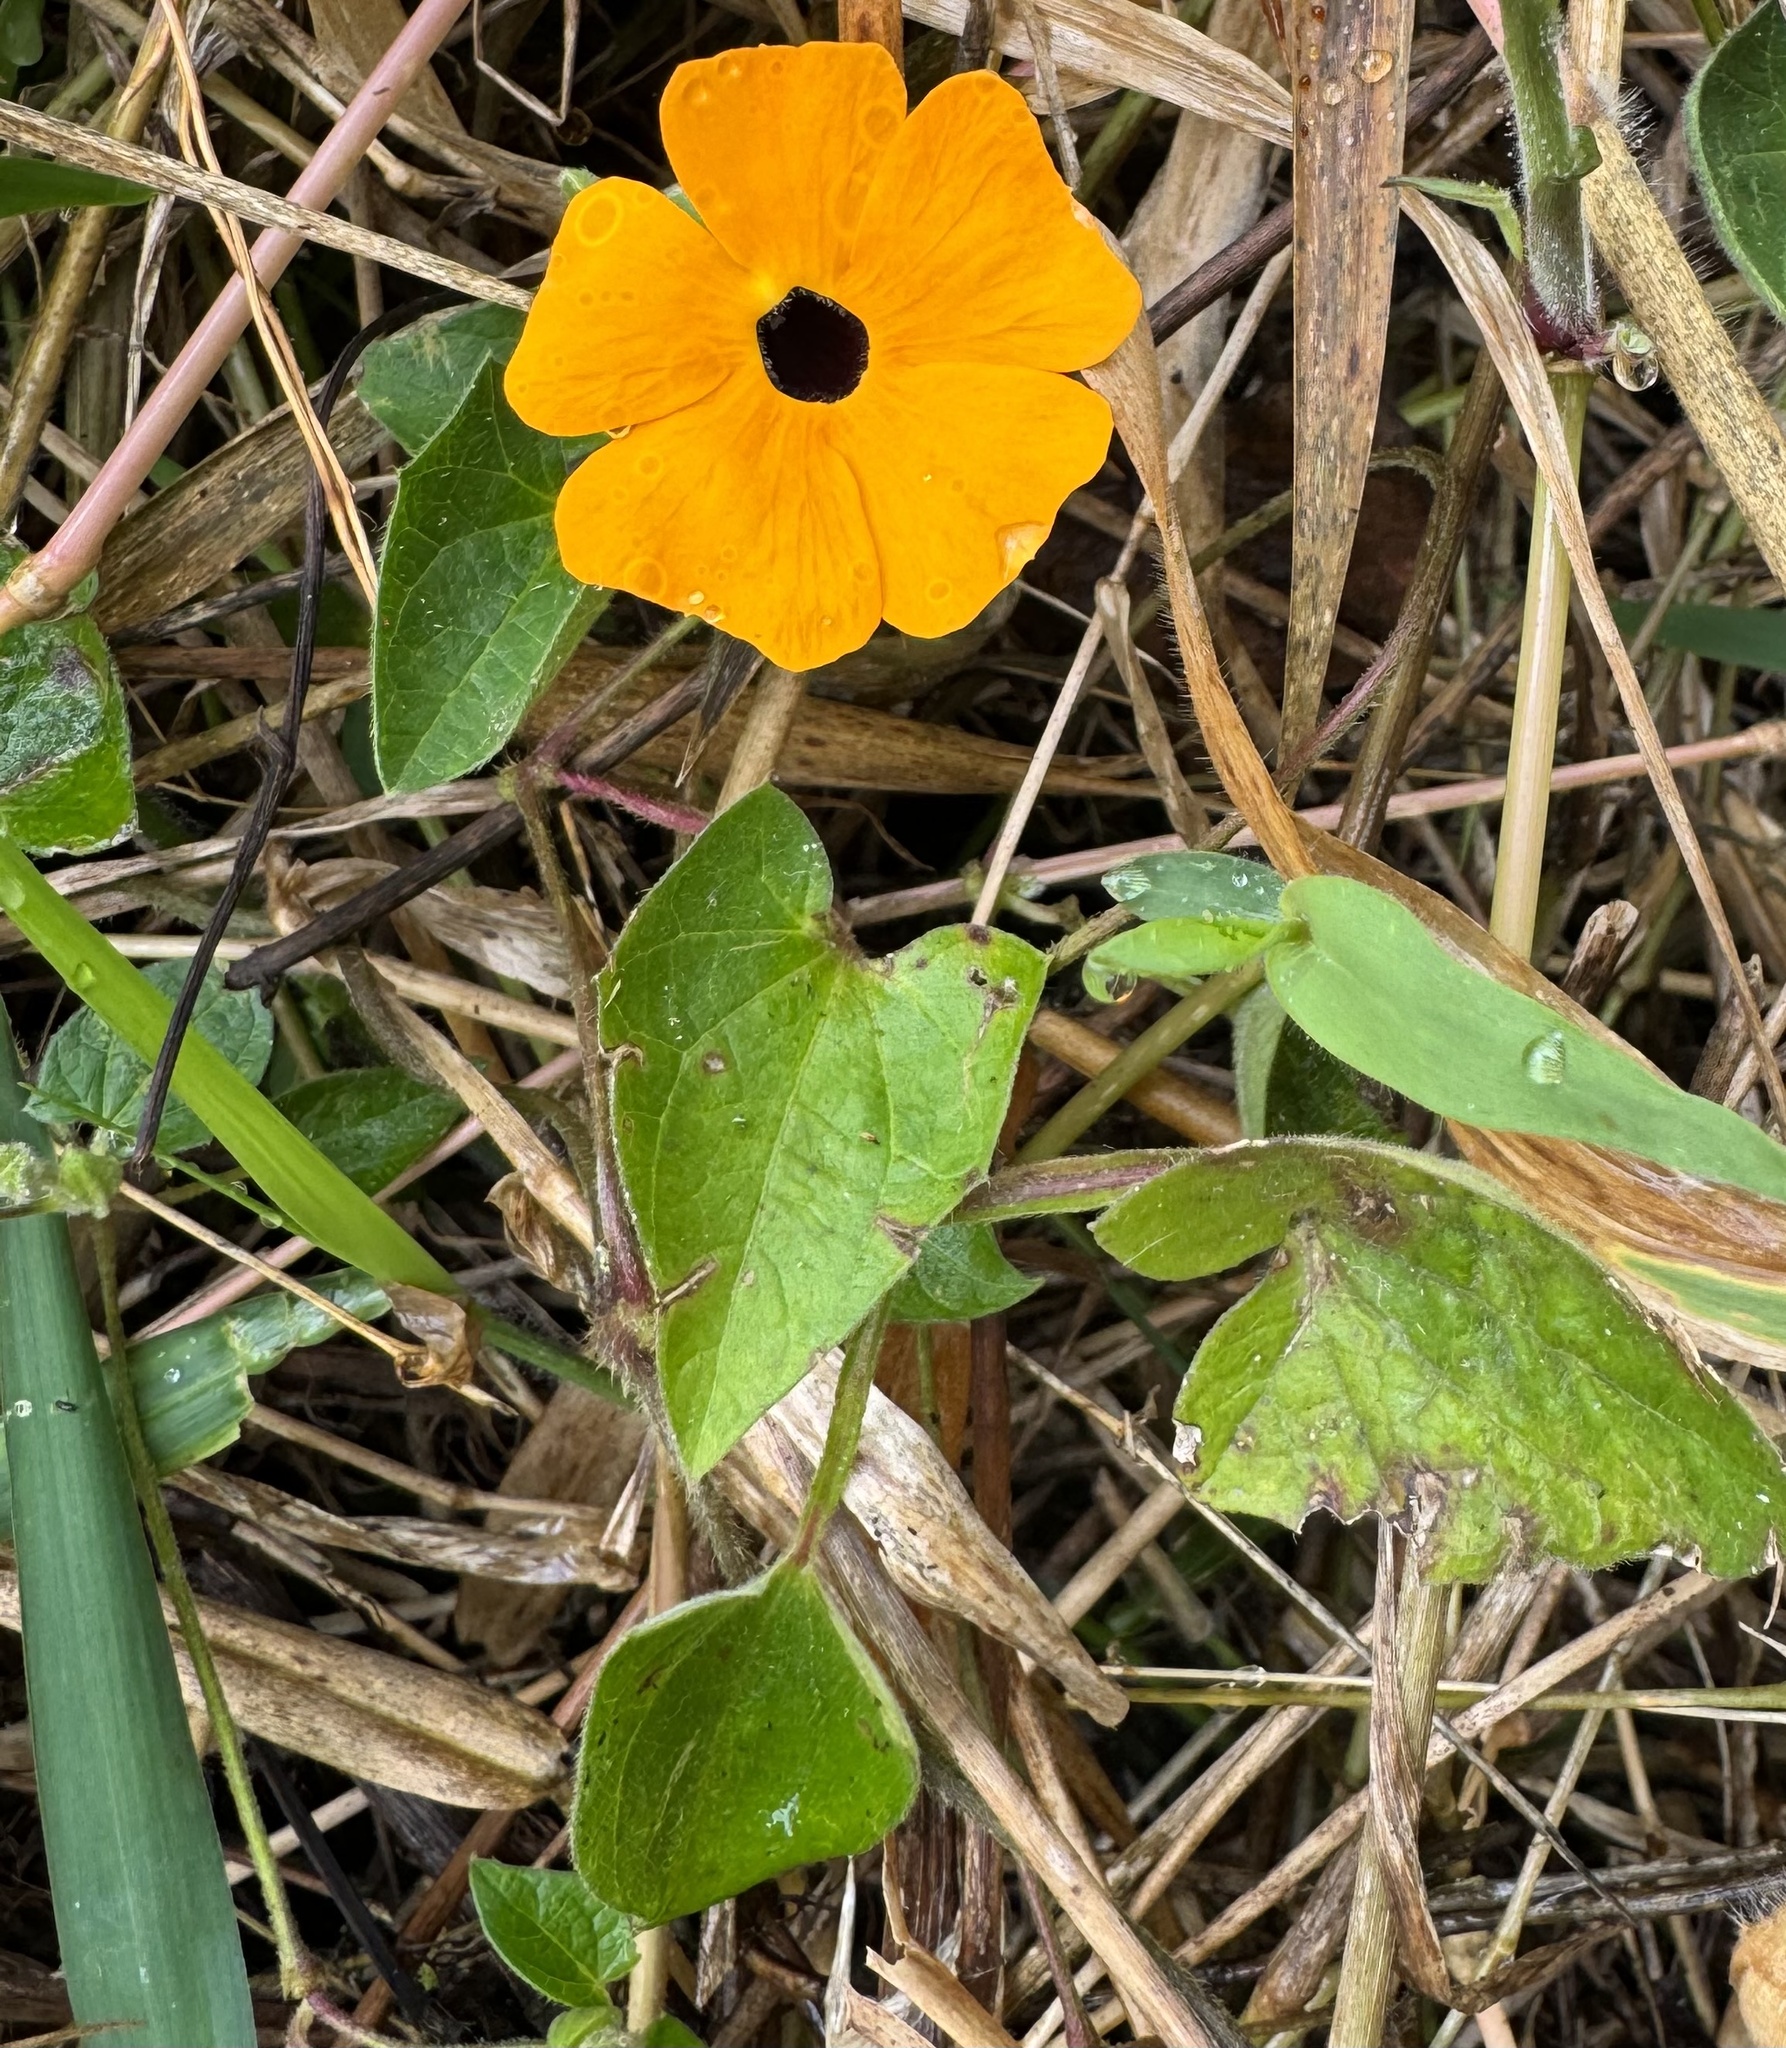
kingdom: Plantae
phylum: Tracheophyta
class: Magnoliopsida
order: Lamiales
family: Acanthaceae
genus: Thunbergia
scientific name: Thunbergia alata
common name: Blackeyed susan vine
